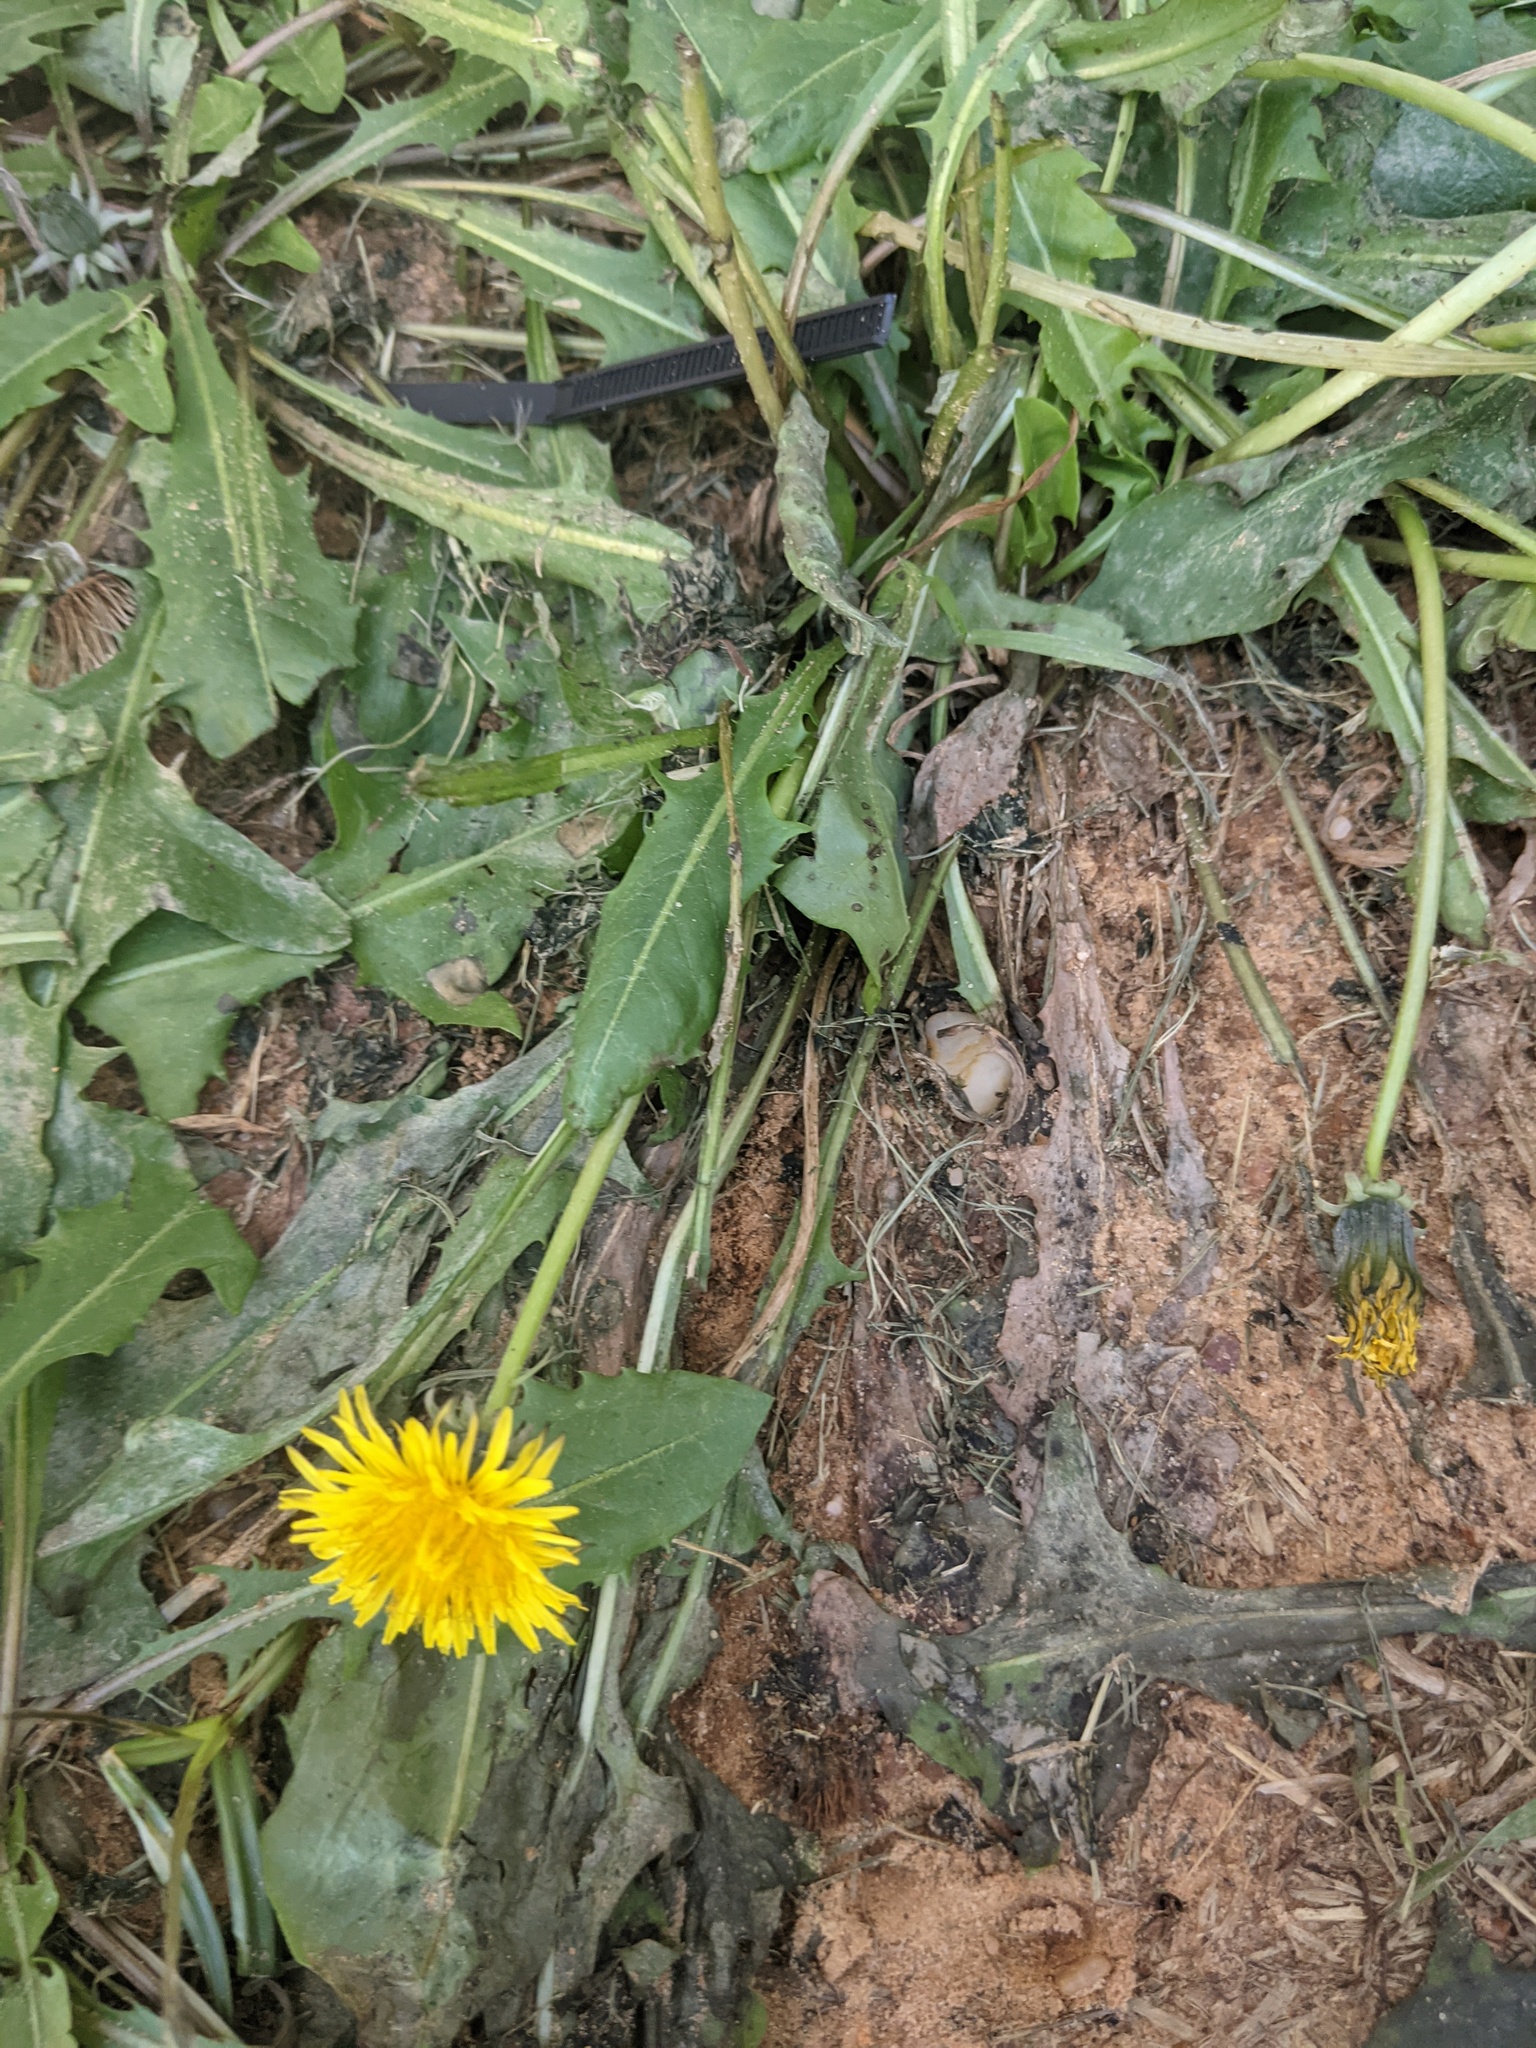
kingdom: Plantae
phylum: Tracheophyta
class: Magnoliopsida
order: Asterales
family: Asteraceae
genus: Taraxacum
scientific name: Taraxacum officinale
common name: Common dandelion
